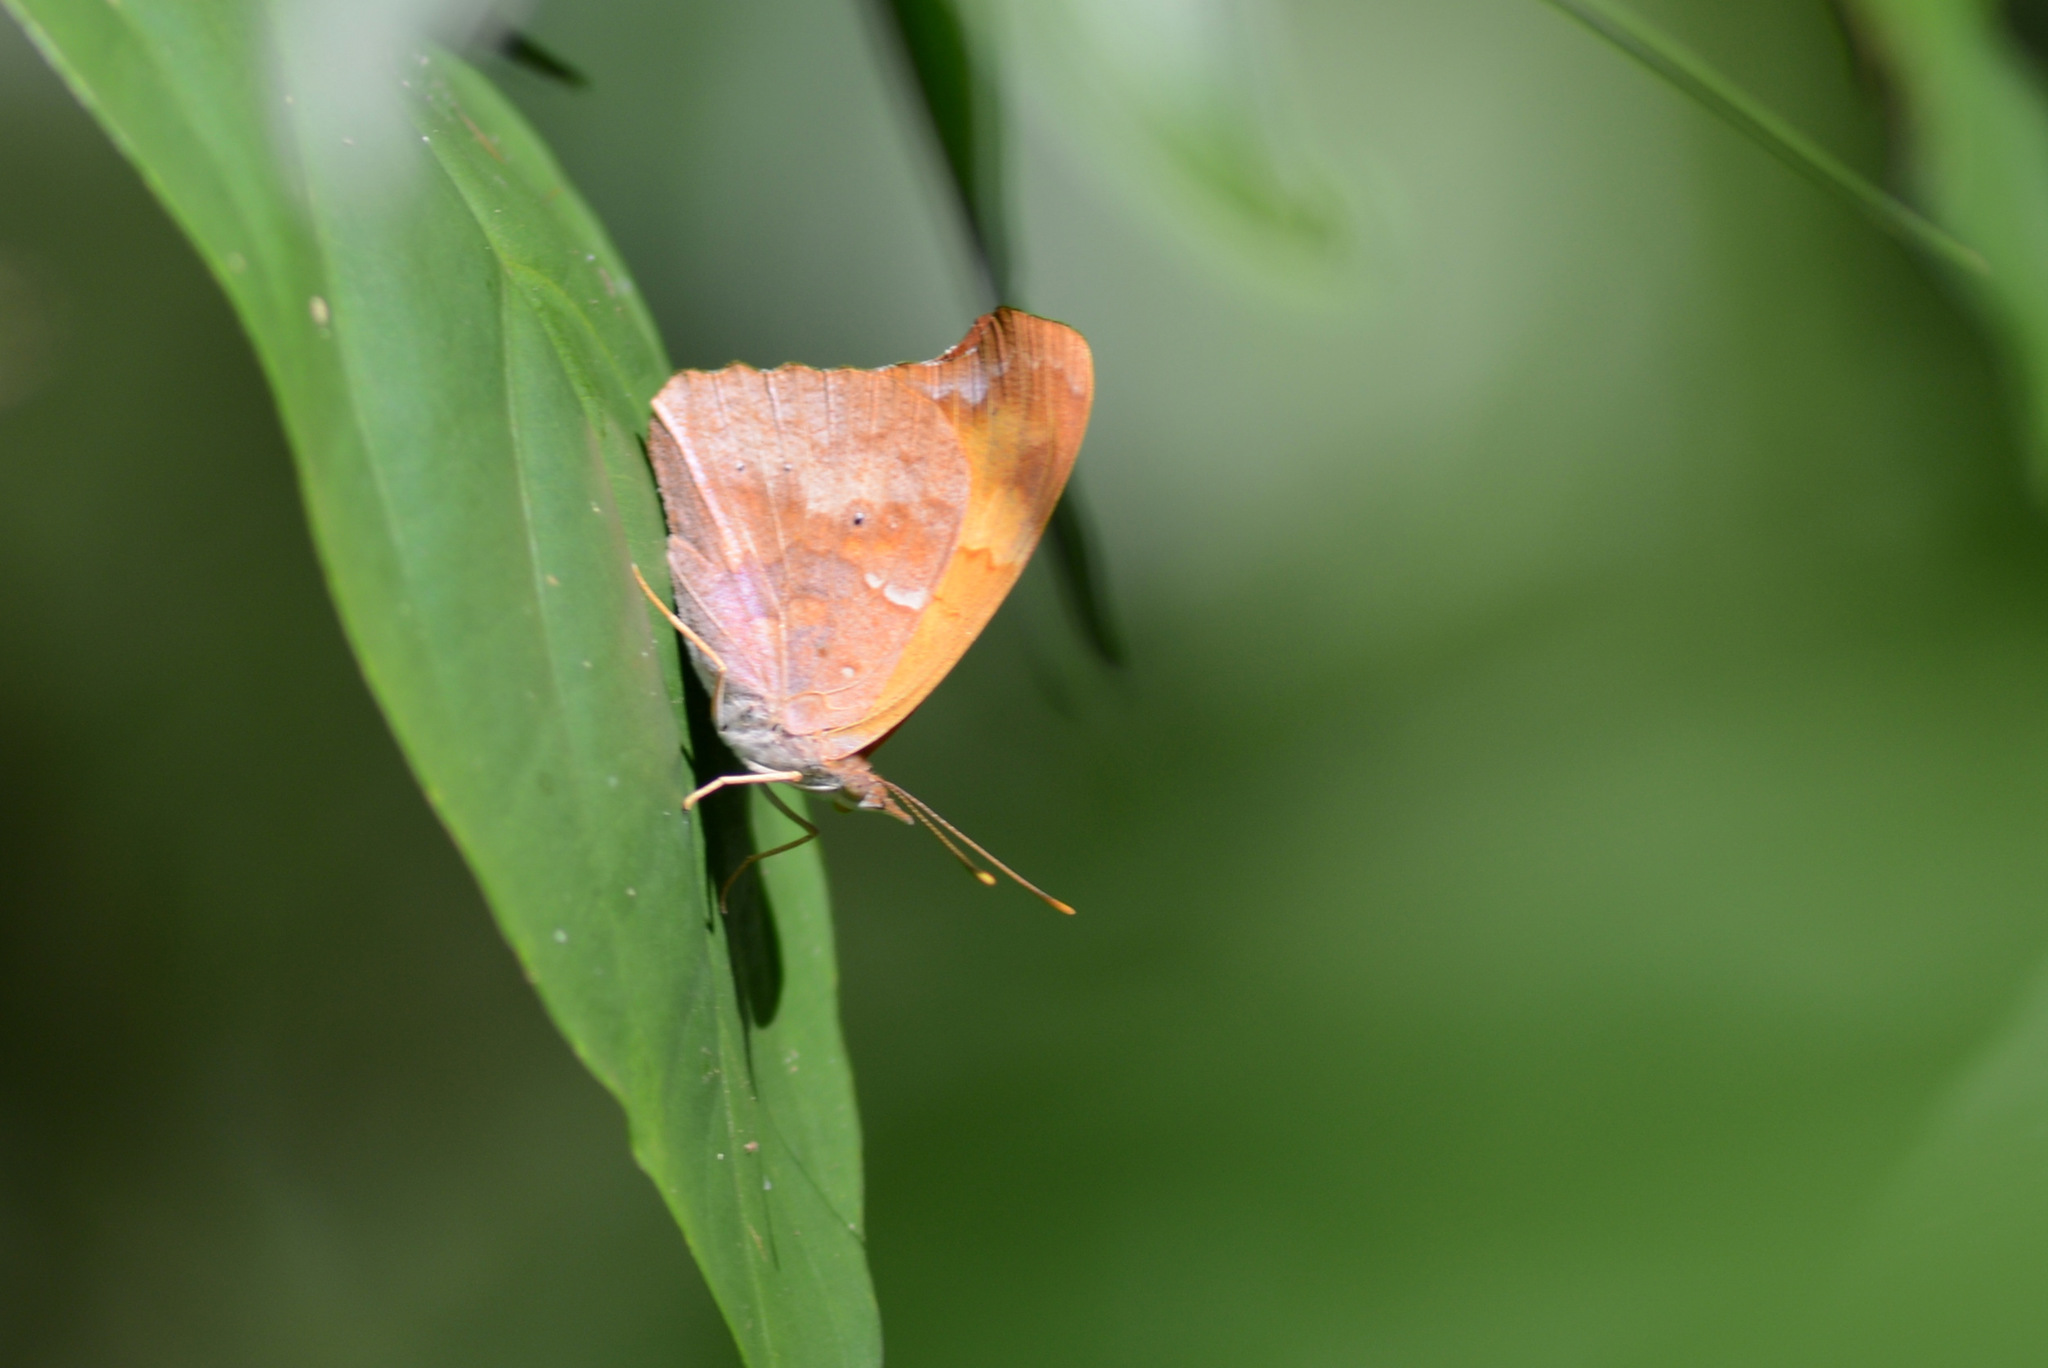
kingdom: Animalia
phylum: Arthropoda
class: Insecta
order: Lepidoptera
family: Nymphalidae
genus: Temenis
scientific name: Temenis laothoe
